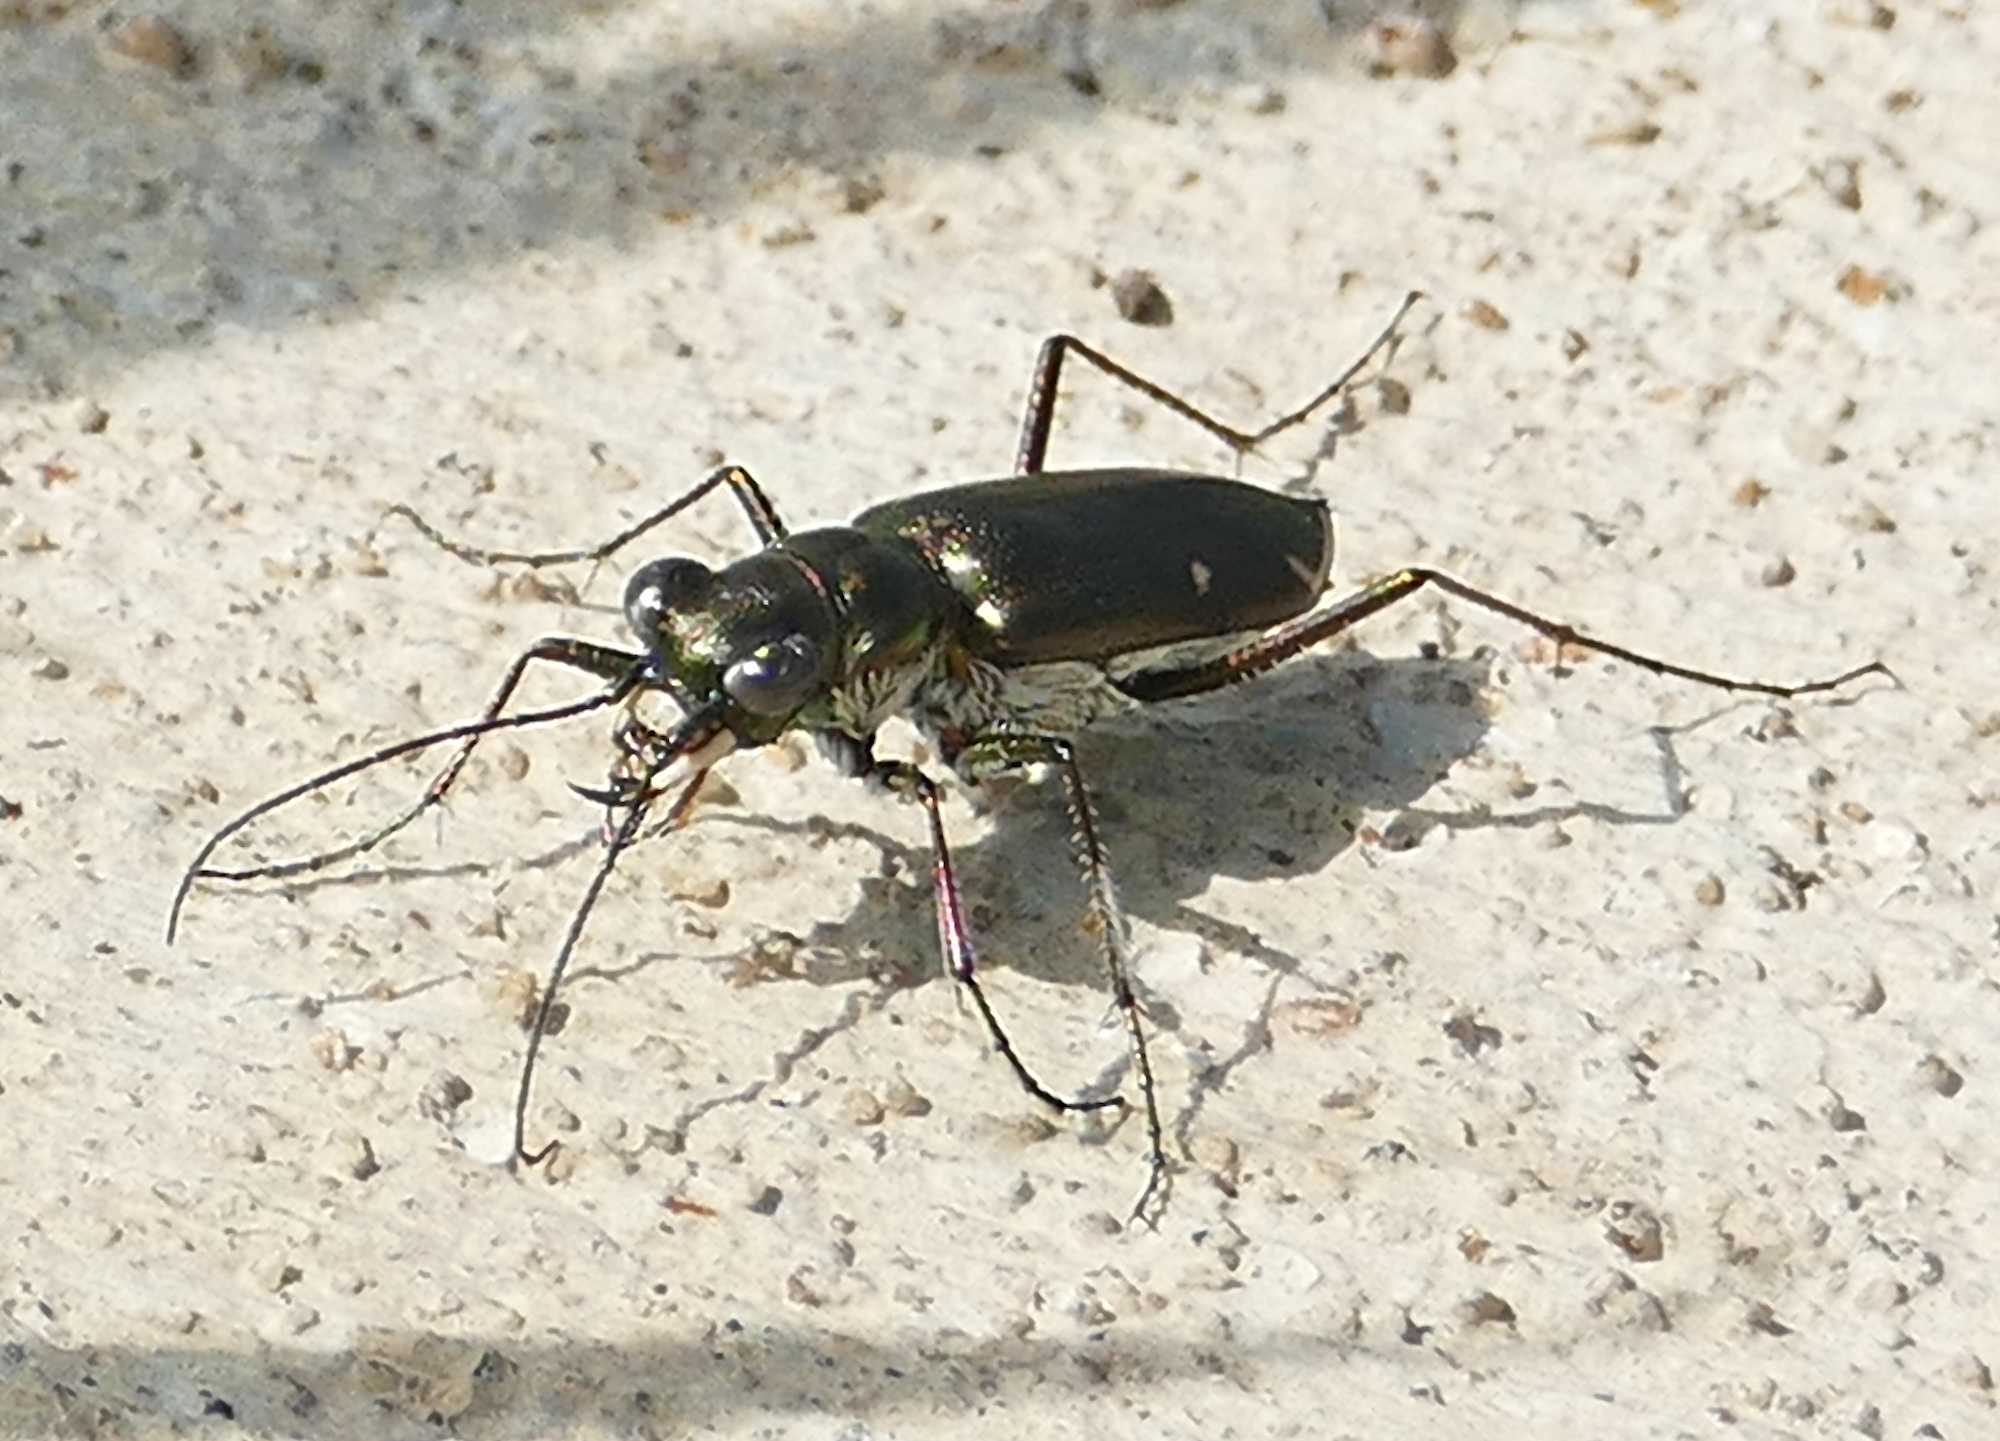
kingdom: Animalia
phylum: Arthropoda
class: Insecta
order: Coleoptera
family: Carabidae
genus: Eunota
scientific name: Eunota severa
